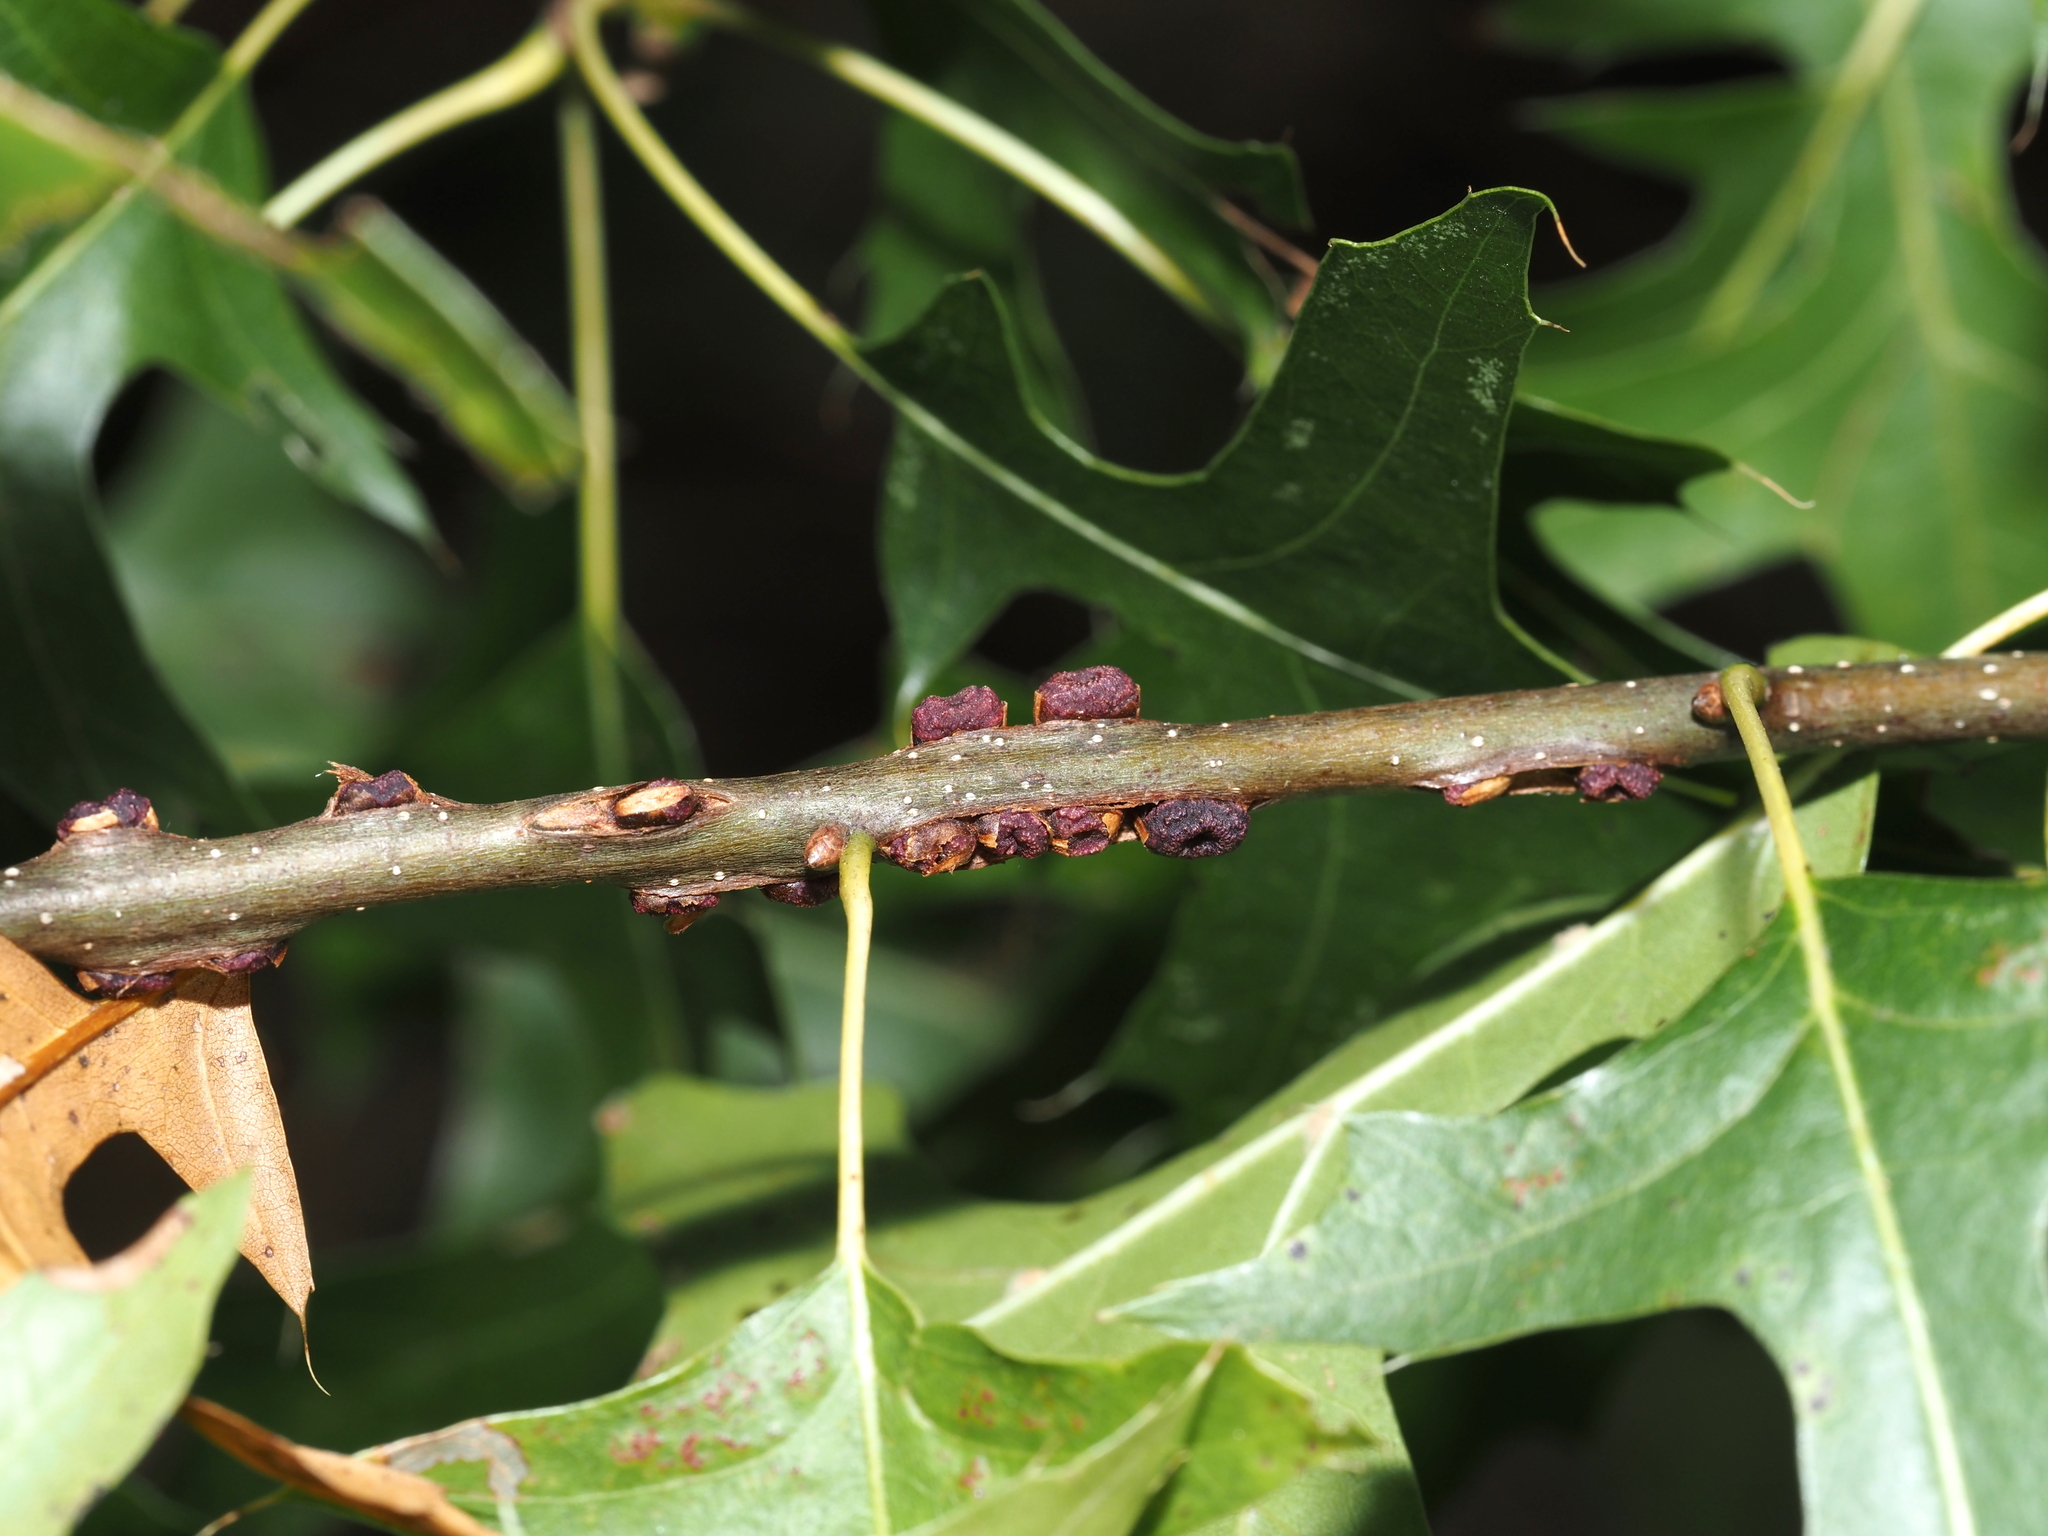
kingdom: Animalia
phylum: Arthropoda
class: Insecta
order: Hymenoptera
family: Cynipidae
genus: Kokkocynips
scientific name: Kokkocynips difficilis
